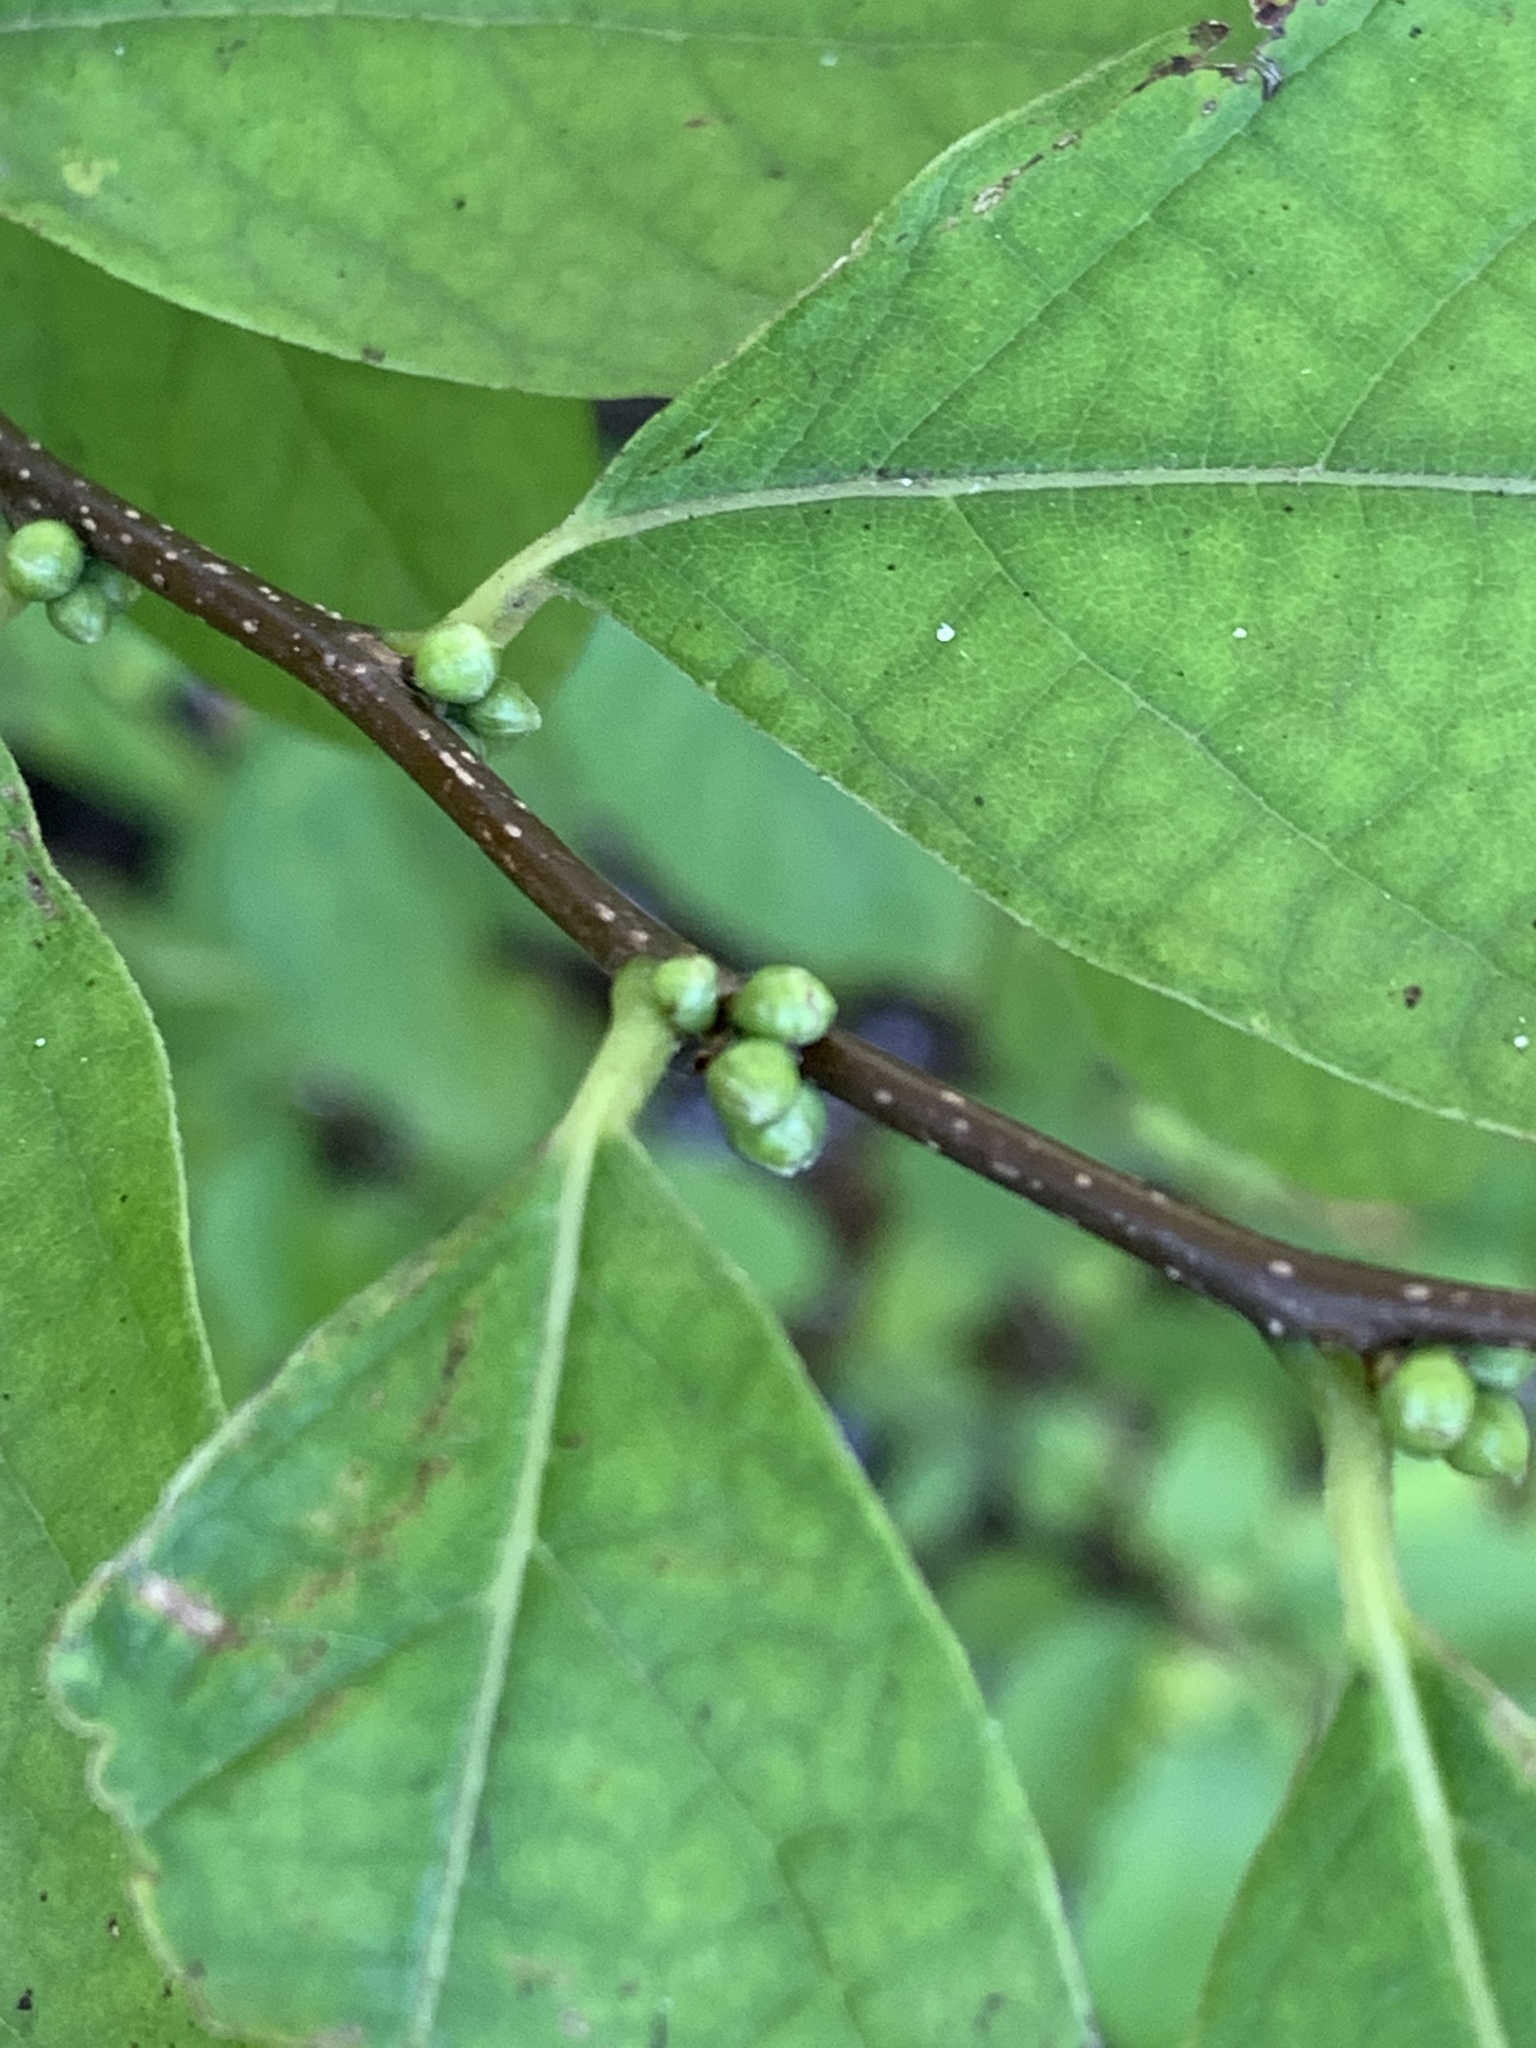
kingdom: Plantae
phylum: Tracheophyta
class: Magnoliopsida
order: Laurales
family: Lauraceae
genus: Lindera
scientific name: Lindera benzoin
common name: Spicebush
